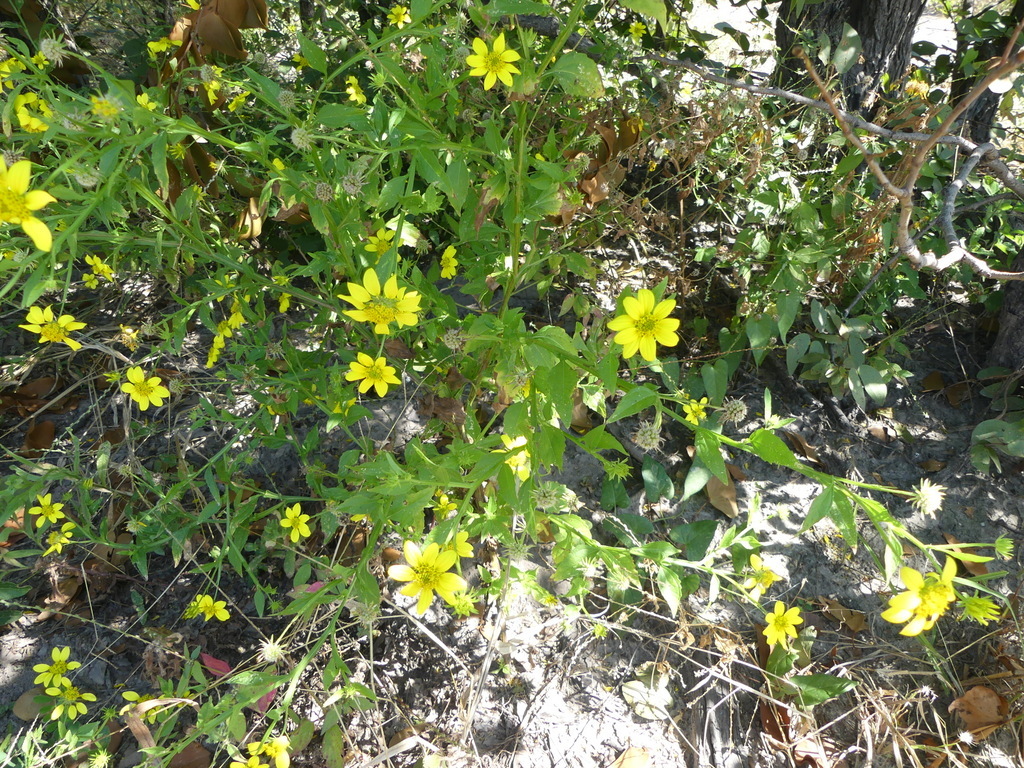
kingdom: Plantae
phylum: Tracheophyta
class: Magnoliopsida
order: Asterales
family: Asteraceae
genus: Calostephane
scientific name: Calostephane divaricata
